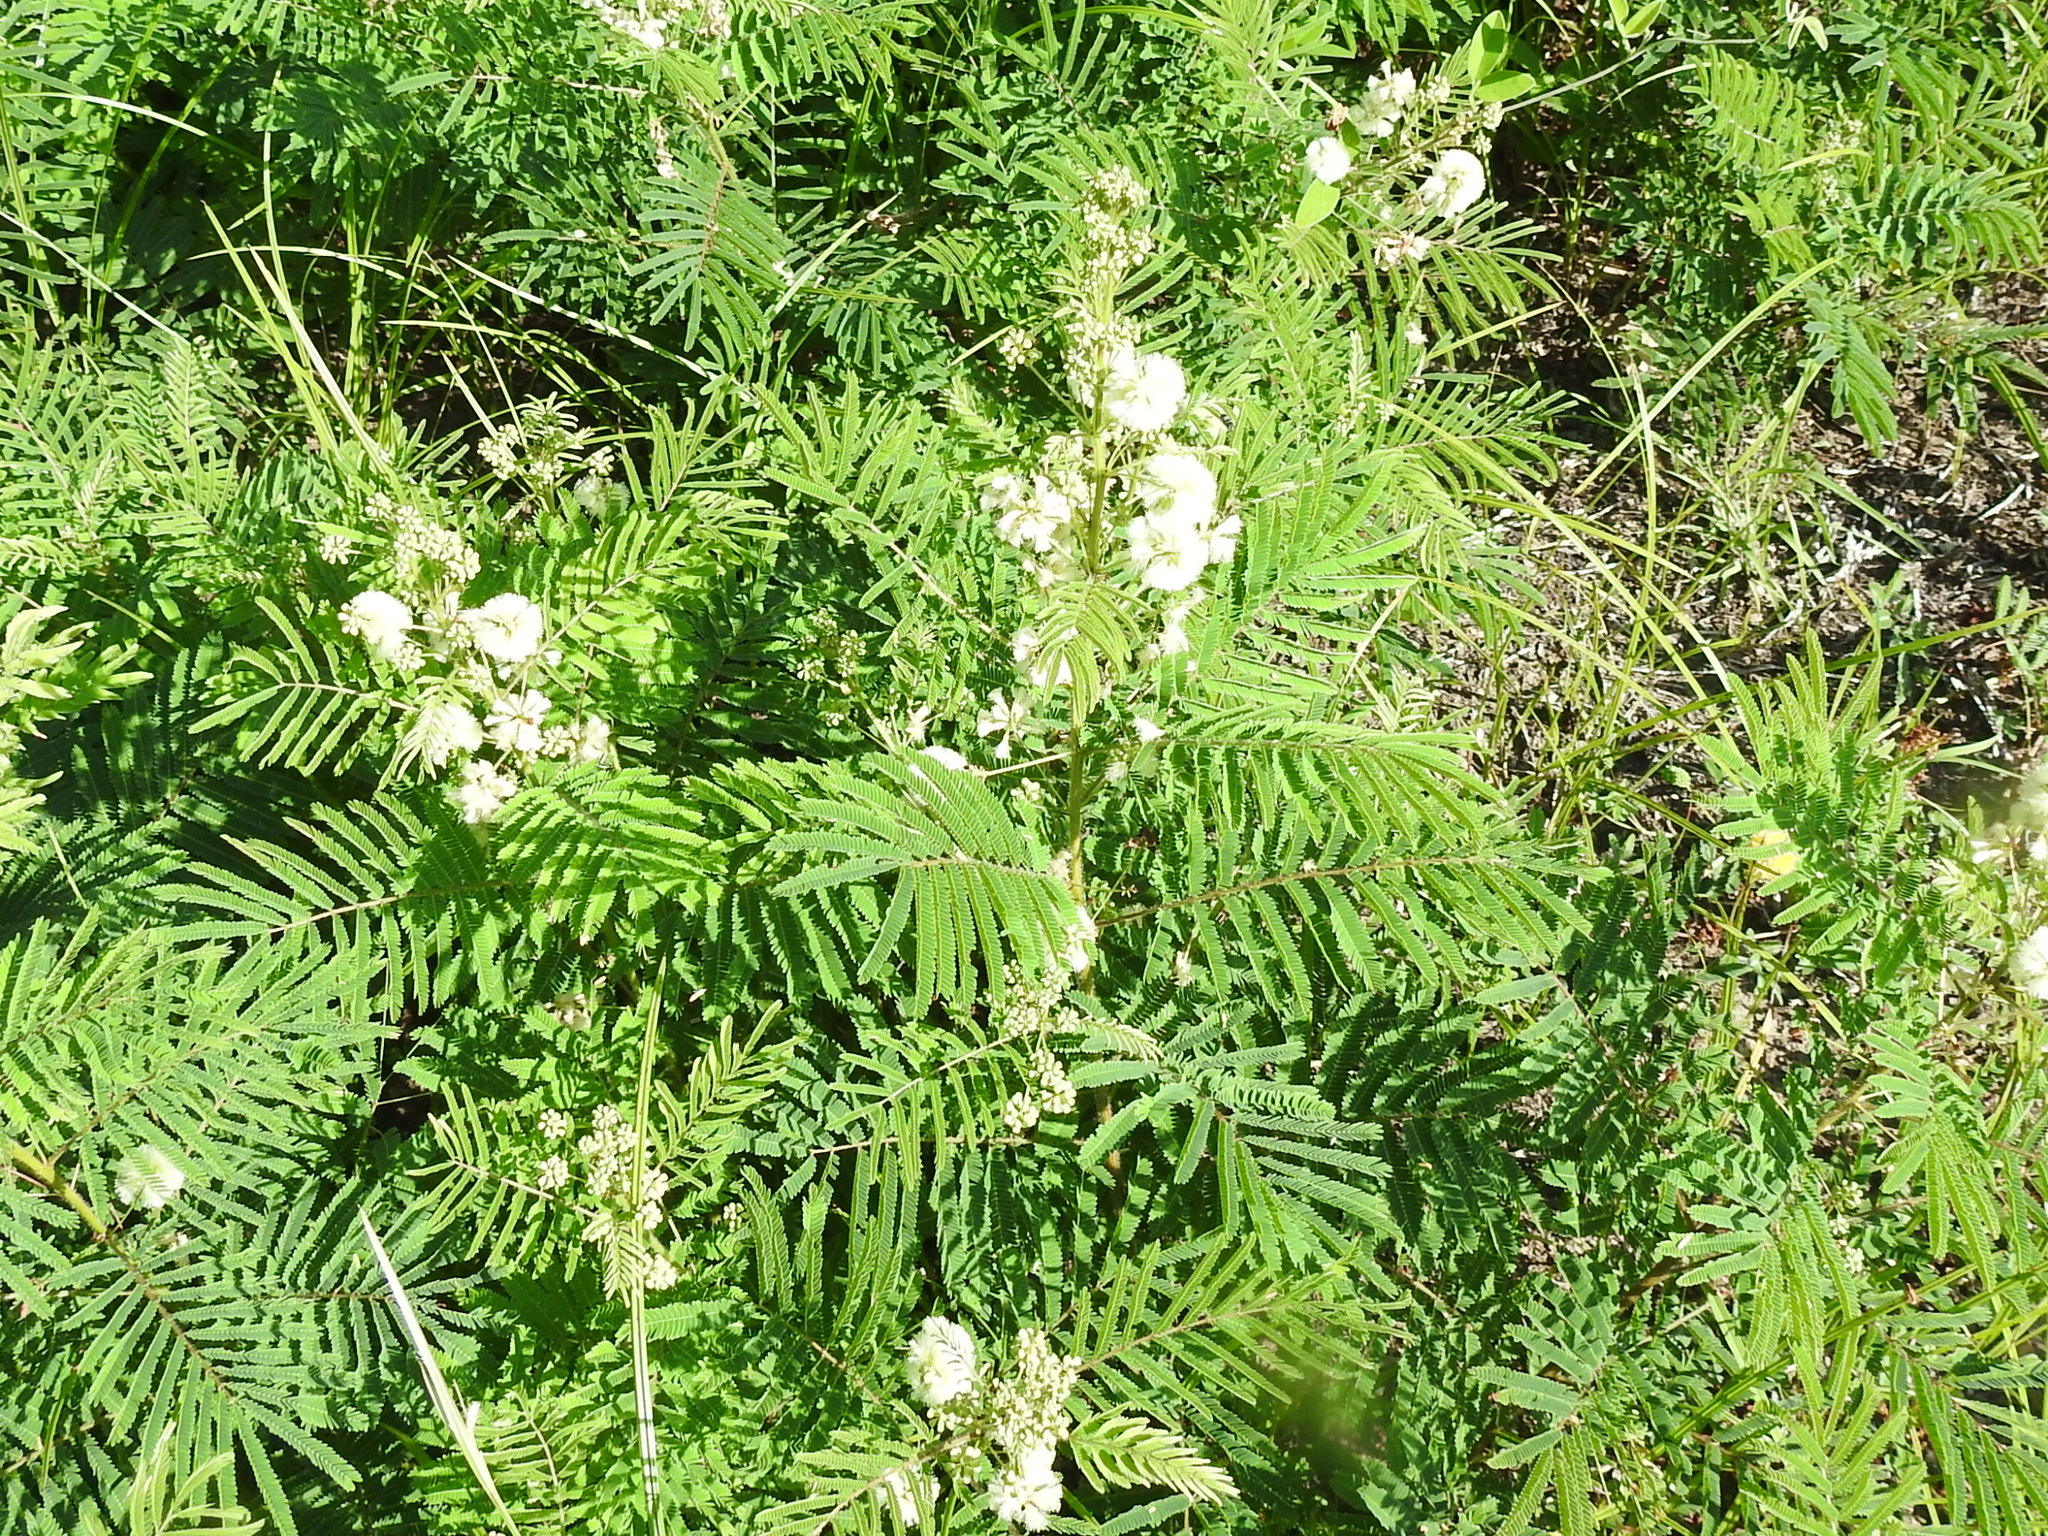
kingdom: Plantae
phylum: Tracheophyta
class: Magnoliopsida
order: Fabales
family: Fabaceae
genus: Acaciella
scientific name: Acaciella angustissima
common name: Prairie acacia
